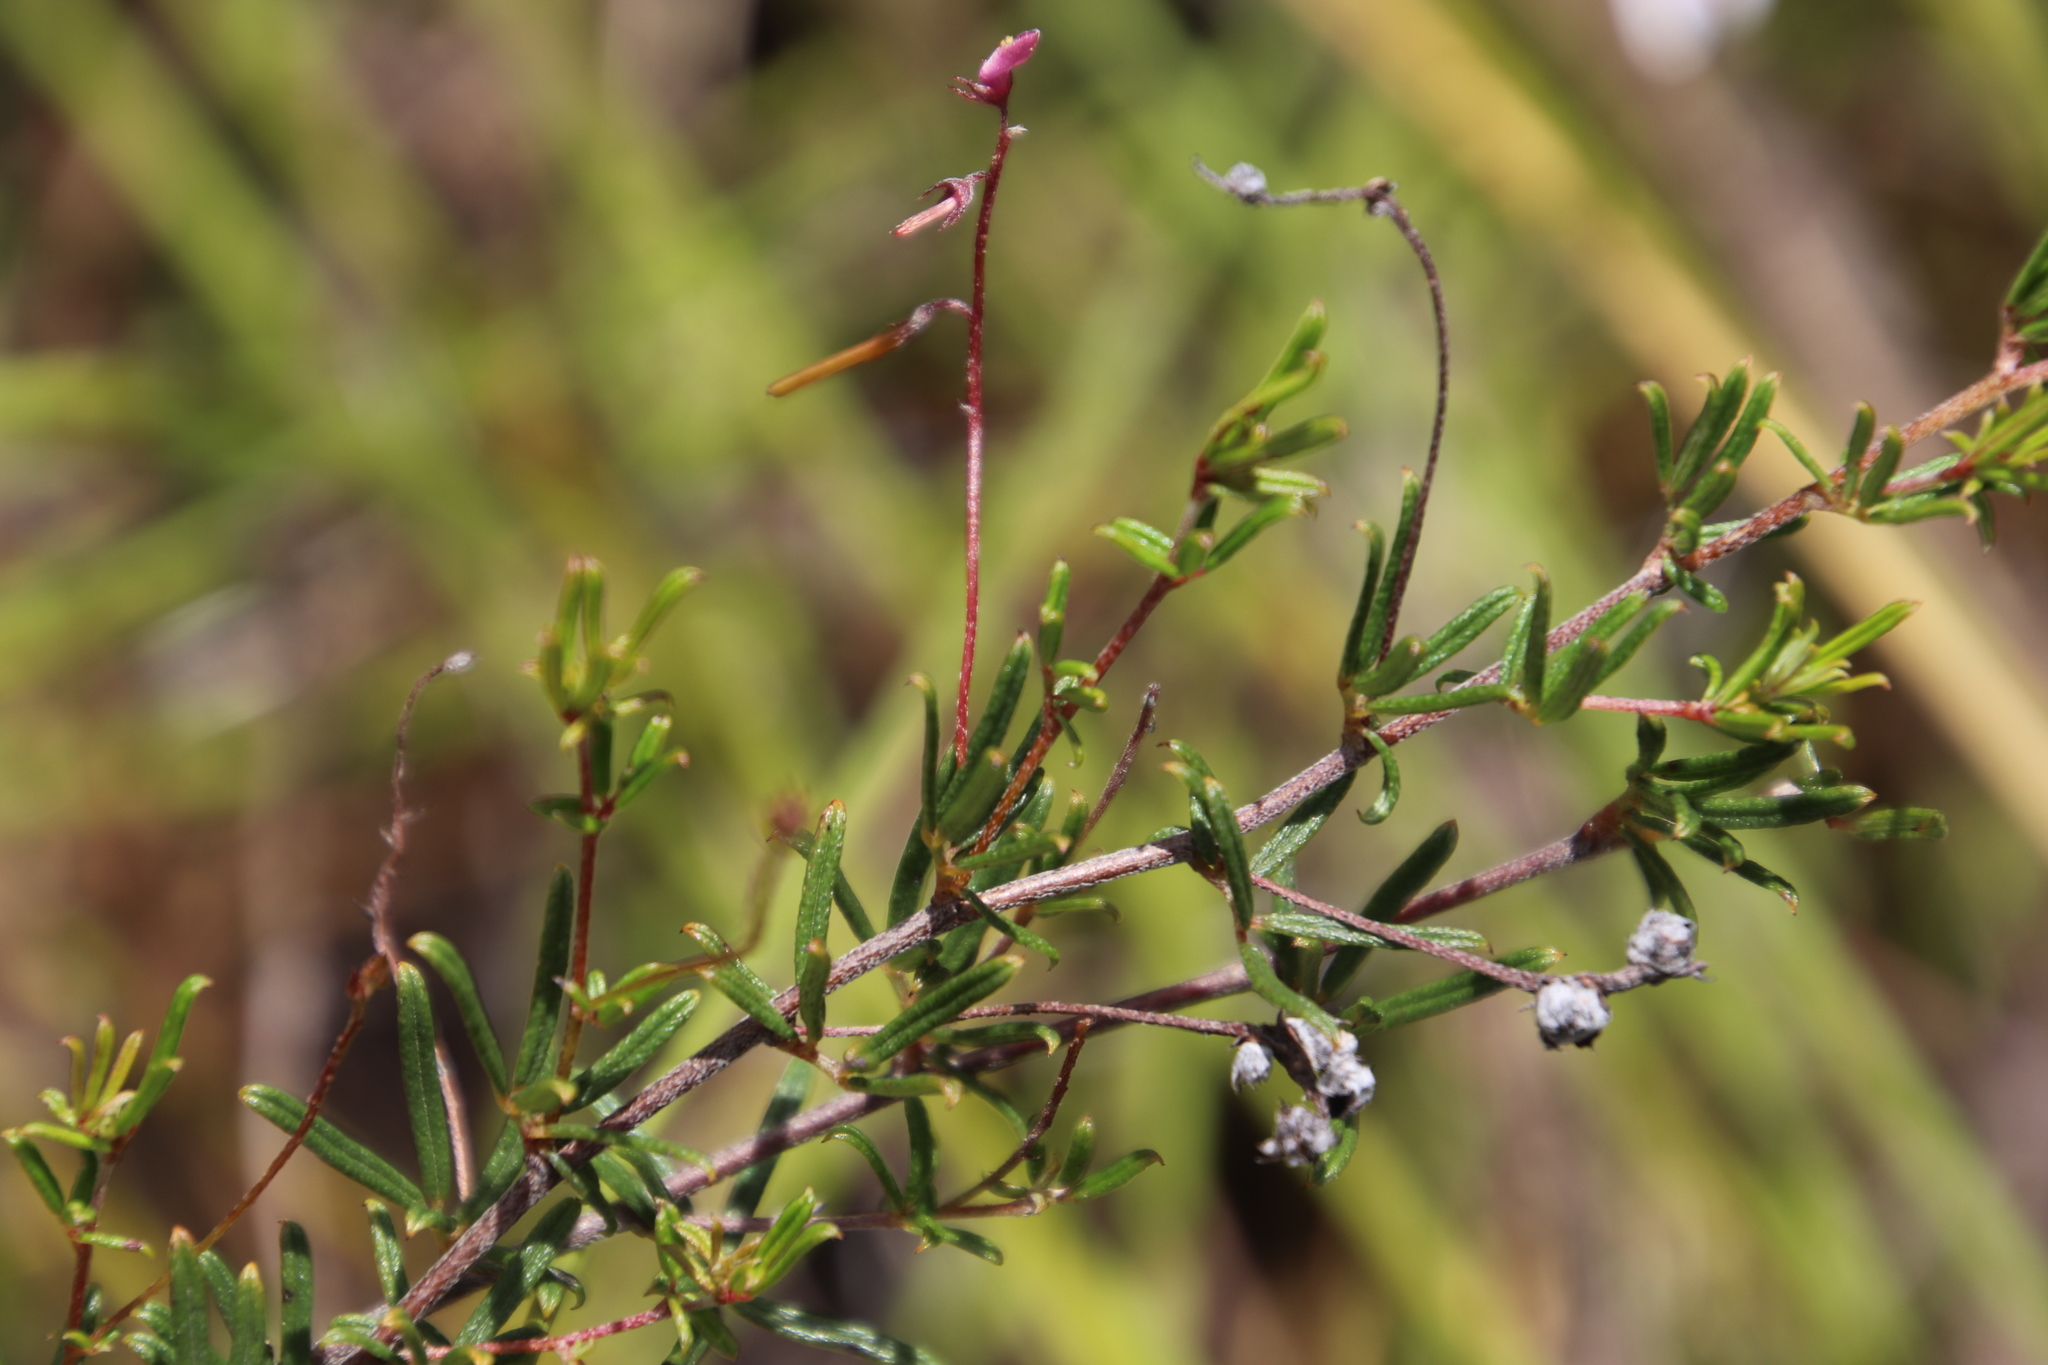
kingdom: Plantae
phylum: Tracheophyta
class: Magnoliopsida
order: Fabales
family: Fabaceae
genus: Indigofera
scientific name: Indigofera angustifolia
